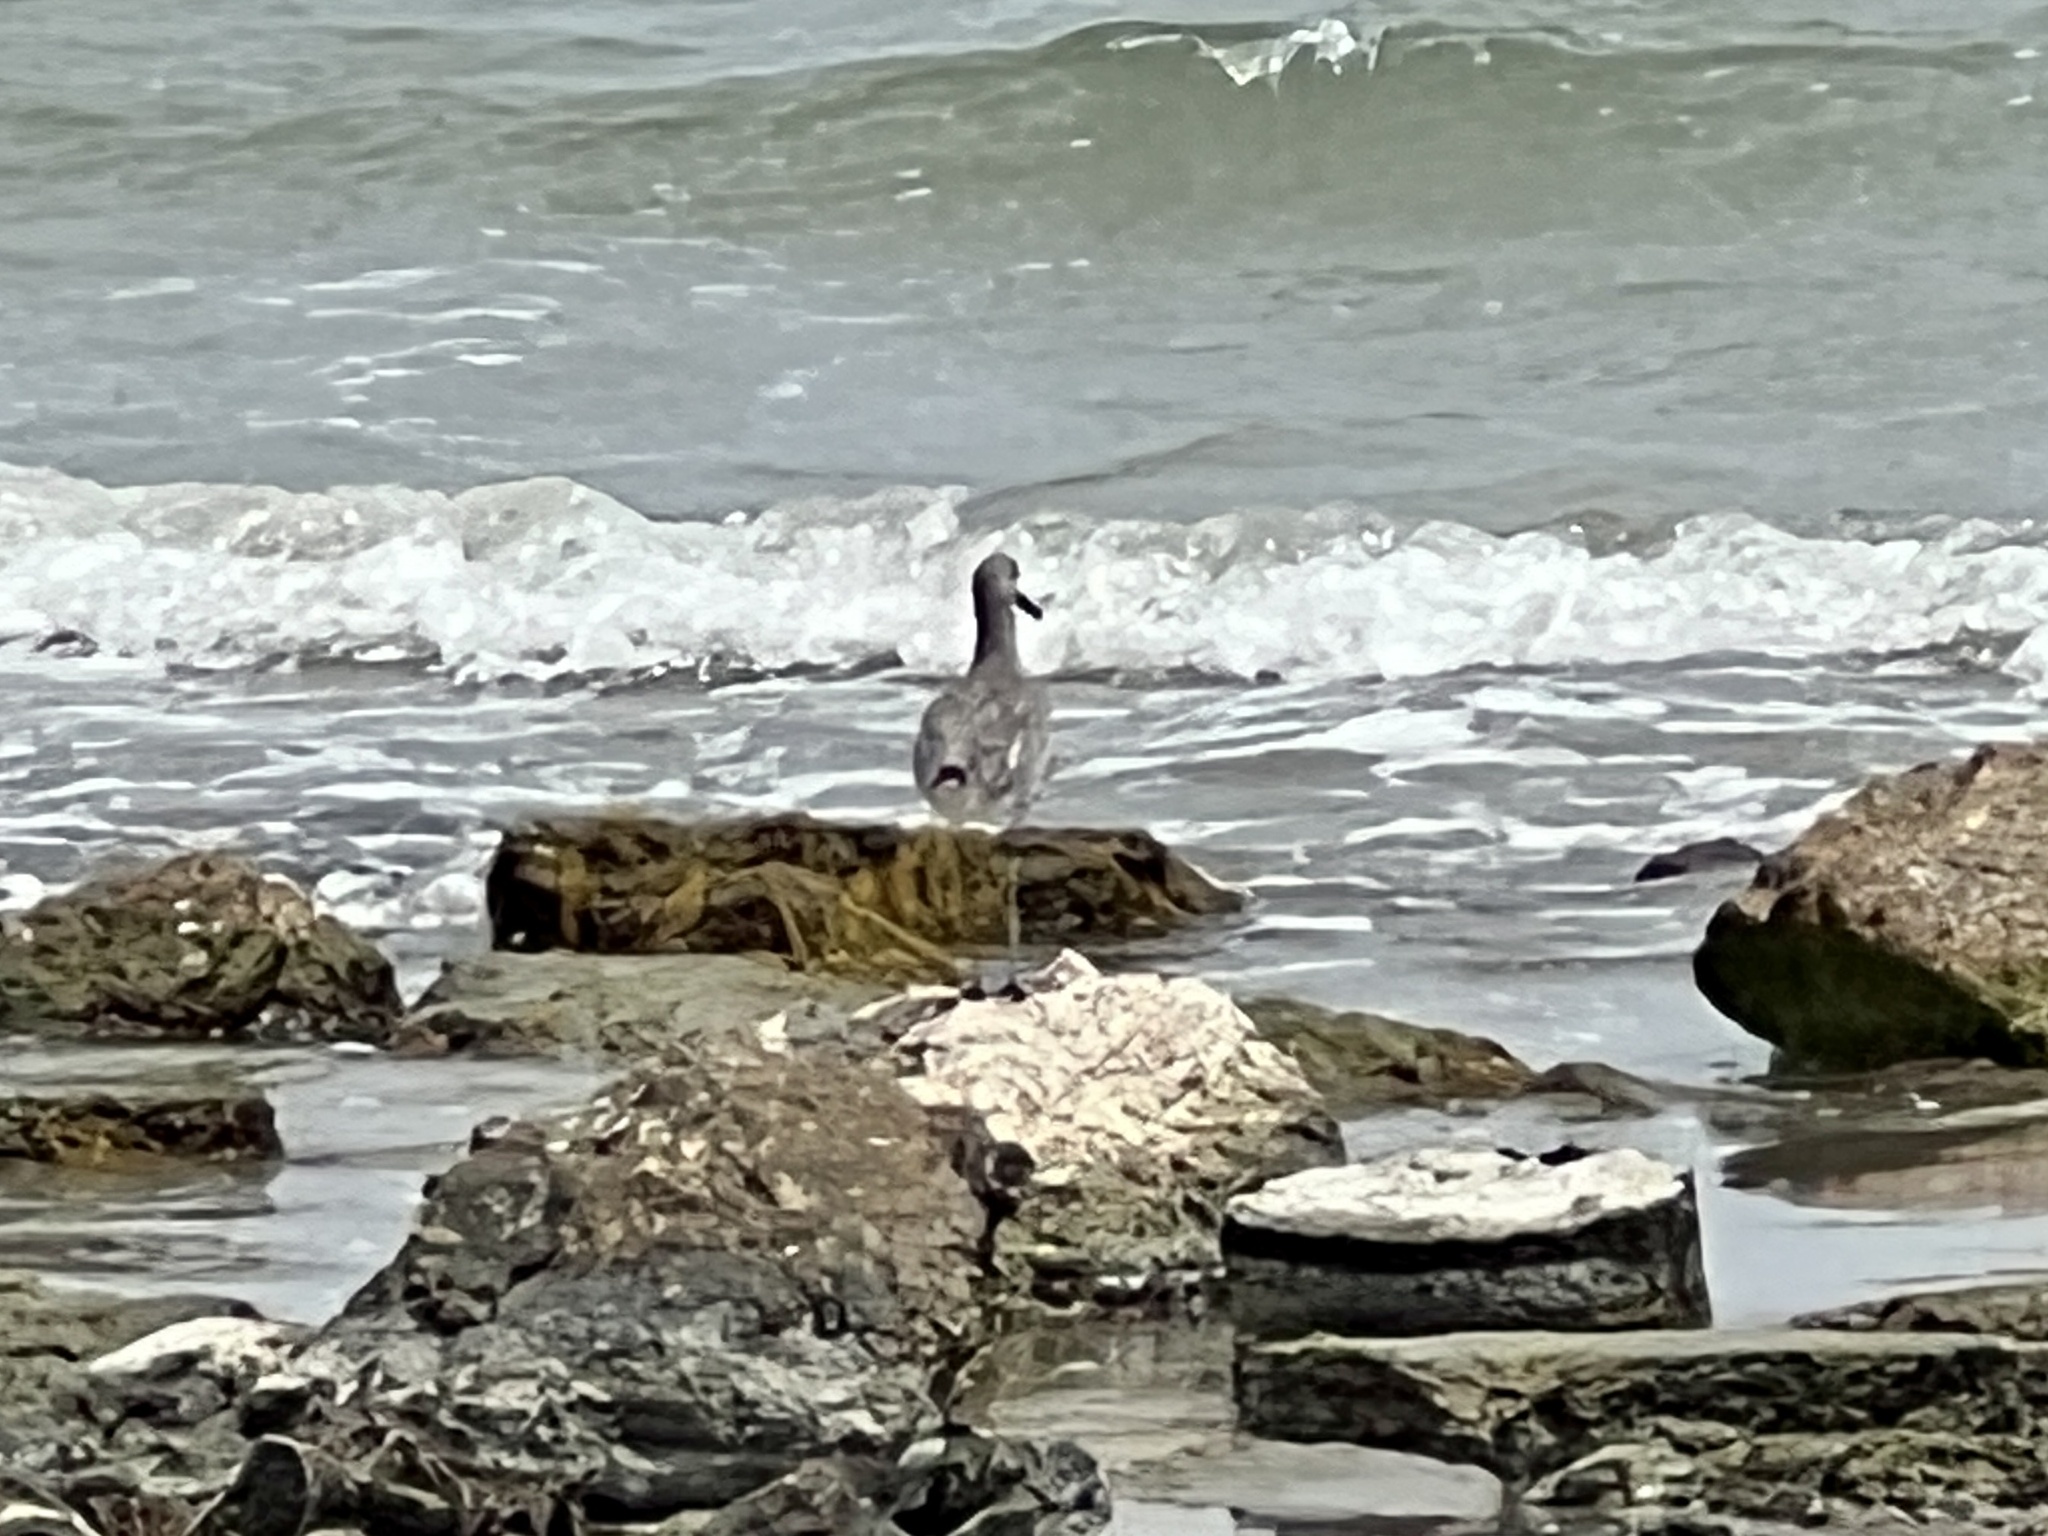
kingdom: Animalia
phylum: Chordata
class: Aves
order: Charadriiformes
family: Scolopacidae
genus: Tringa
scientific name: Tringa semipalmata
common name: Willet
